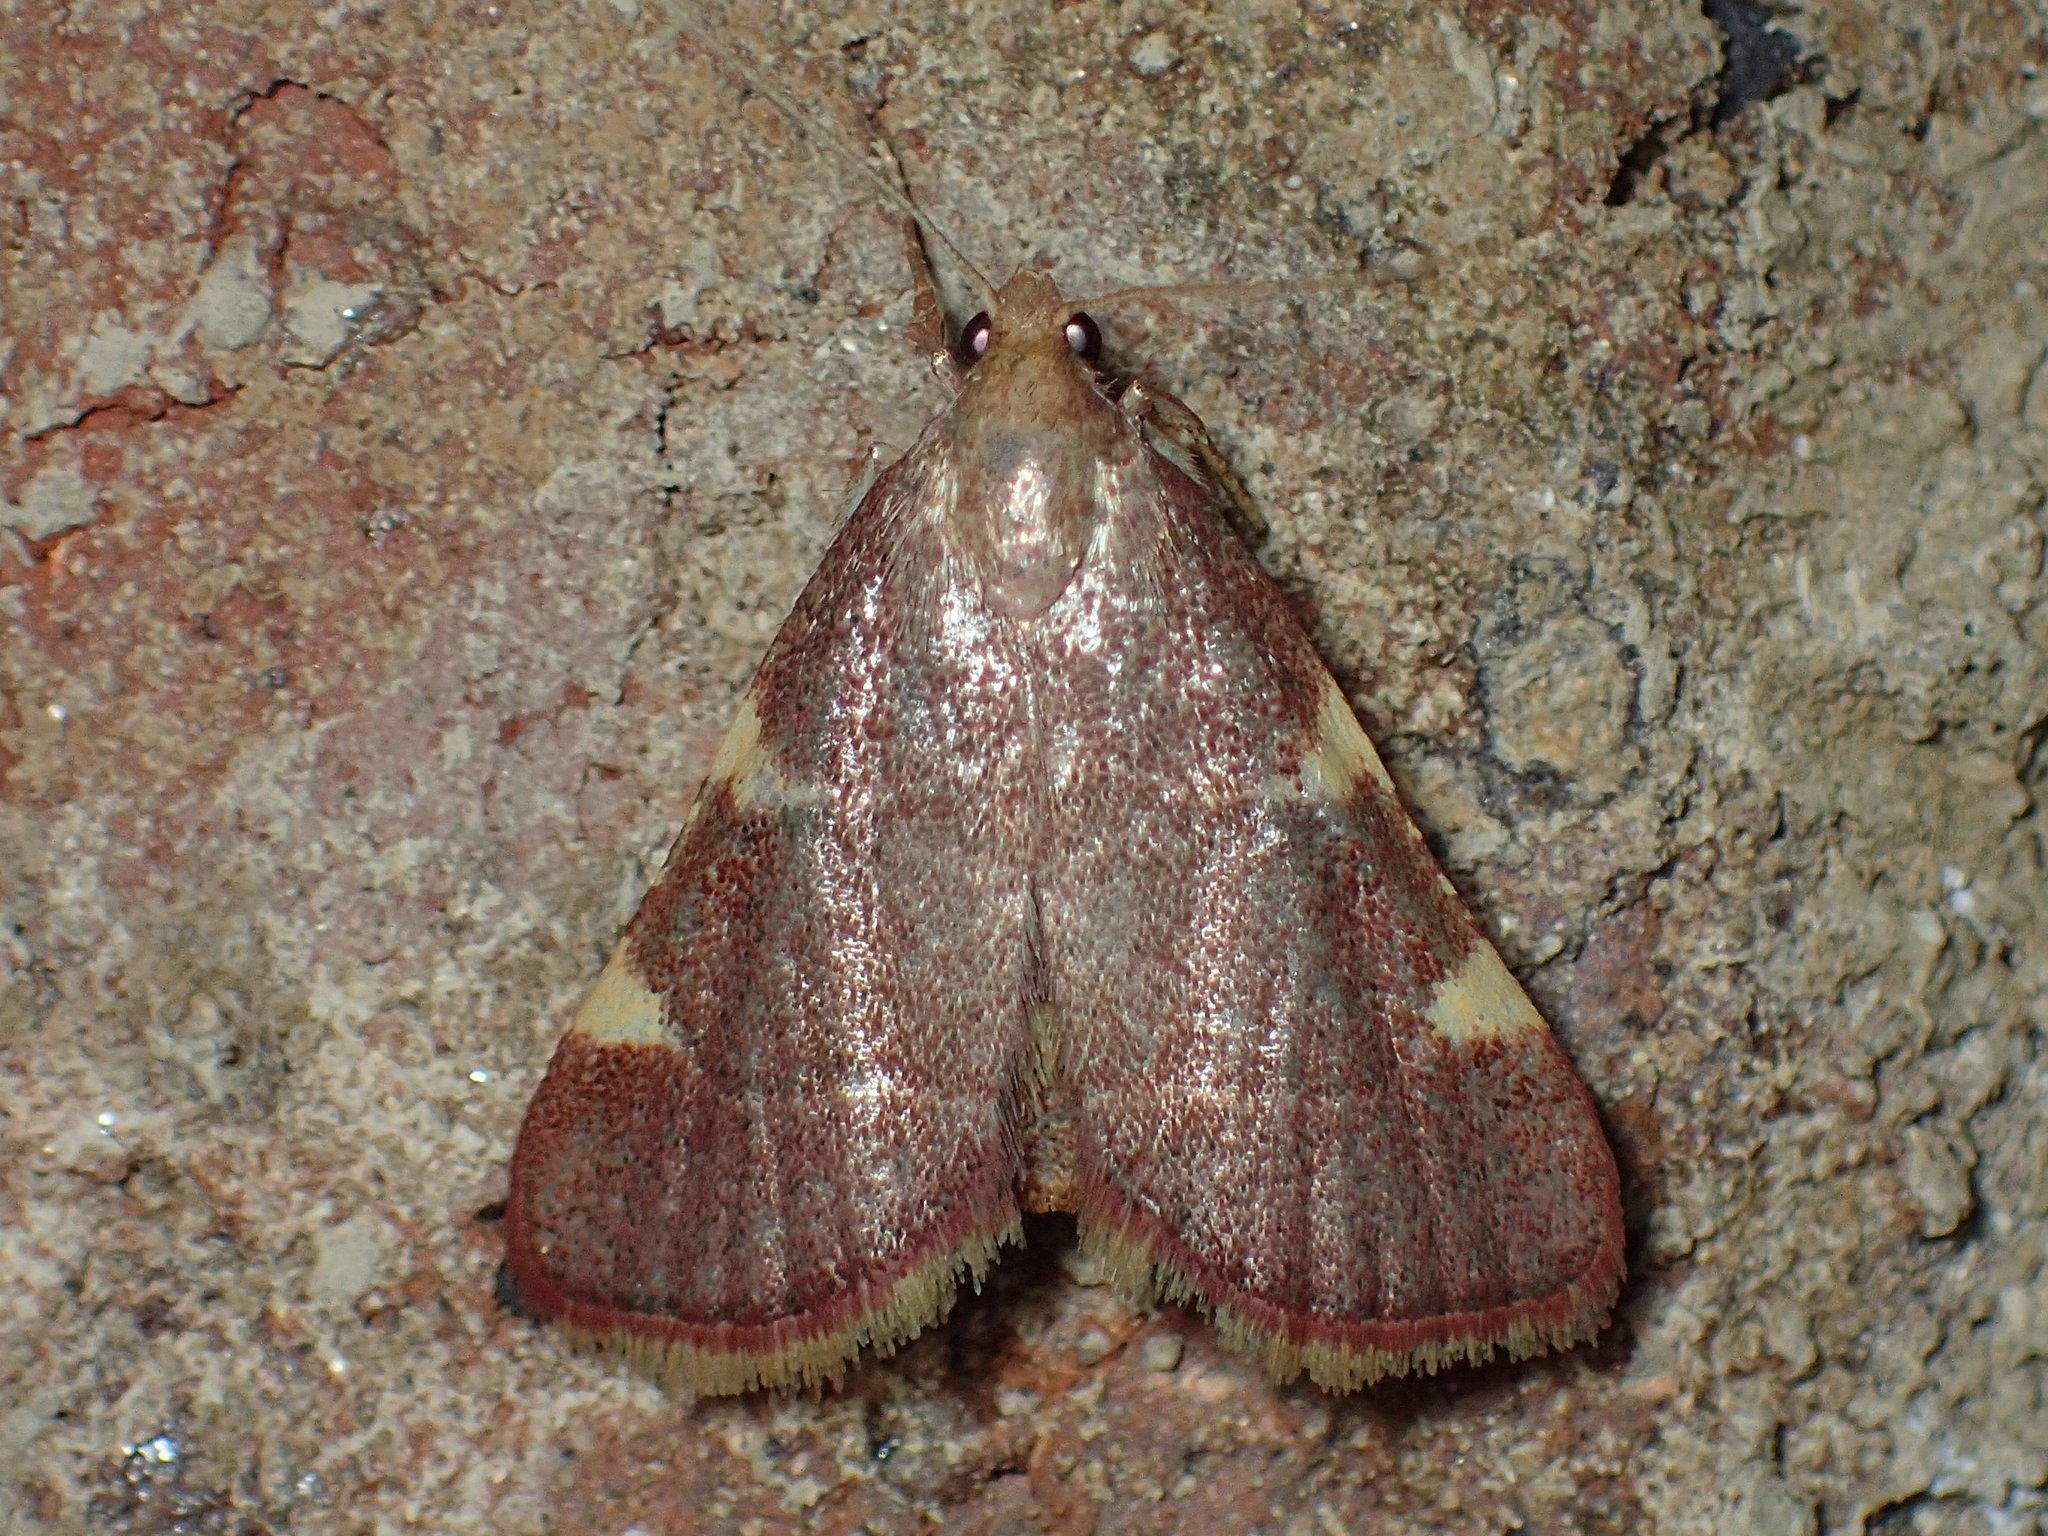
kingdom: Animalia
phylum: Arthropoda
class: Insecta
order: Lepidoptera
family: Pyralidae
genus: Hypsopygia
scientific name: Hypsopygia olinalis
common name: Yellow-fringed dolichomia moth
